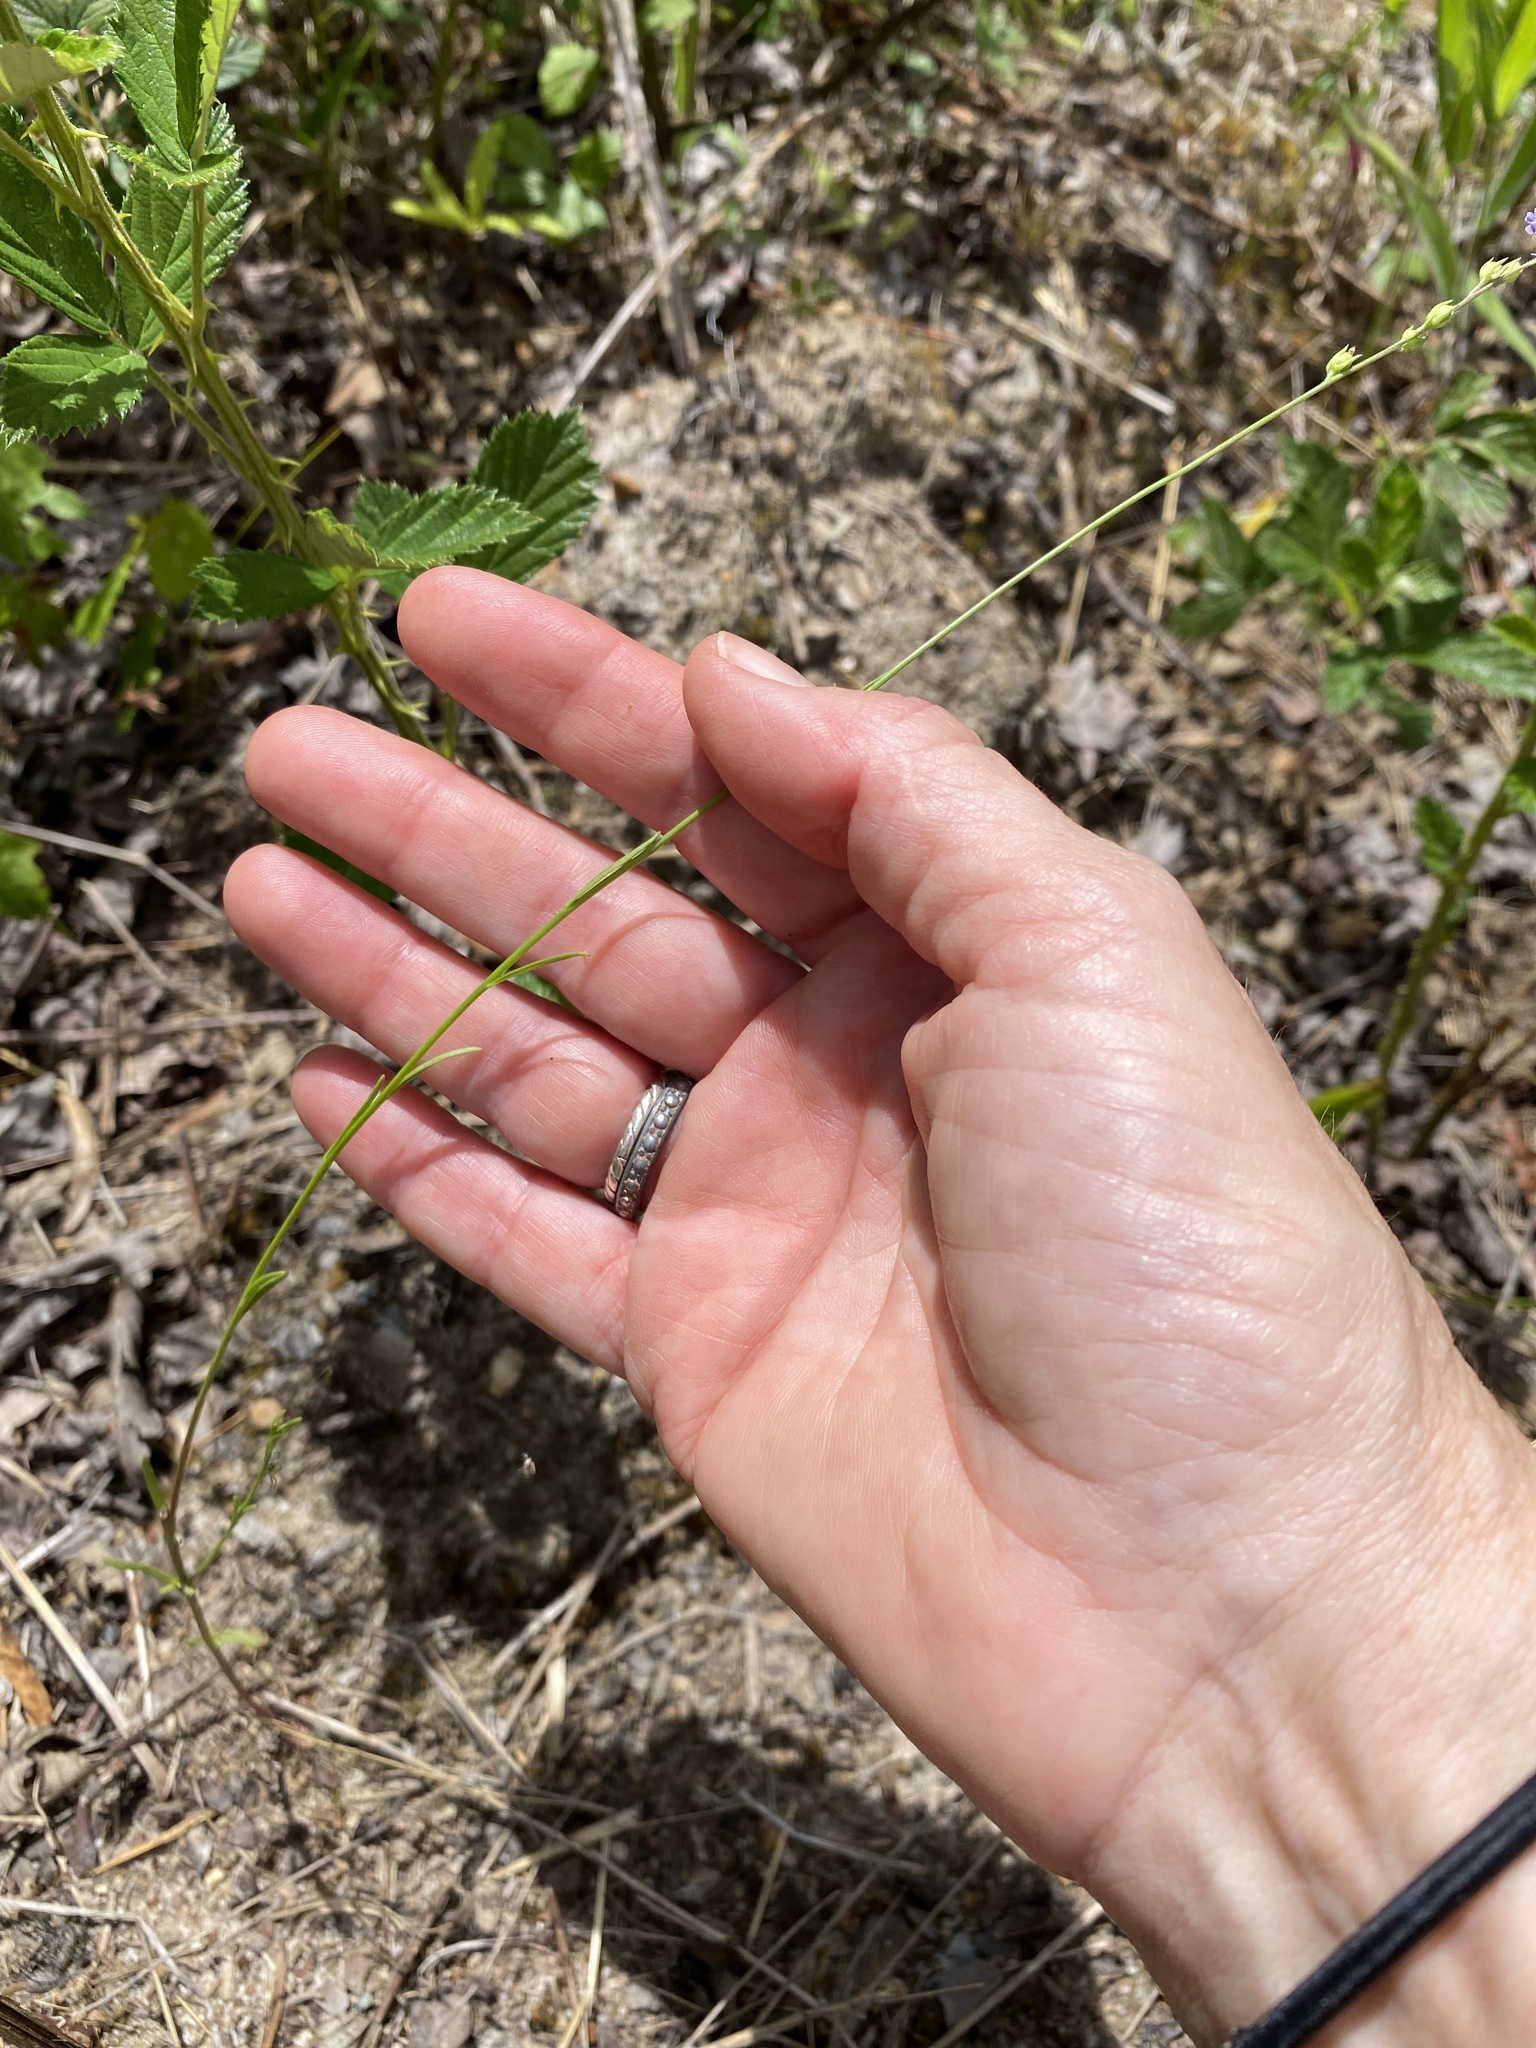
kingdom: Plantae
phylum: Tracheophyta
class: Magnoliopsida
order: Lamiales
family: Plantaginaceae
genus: Nuttallanthus
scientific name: Nuttallanthus canadensis
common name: Blue toadflax
